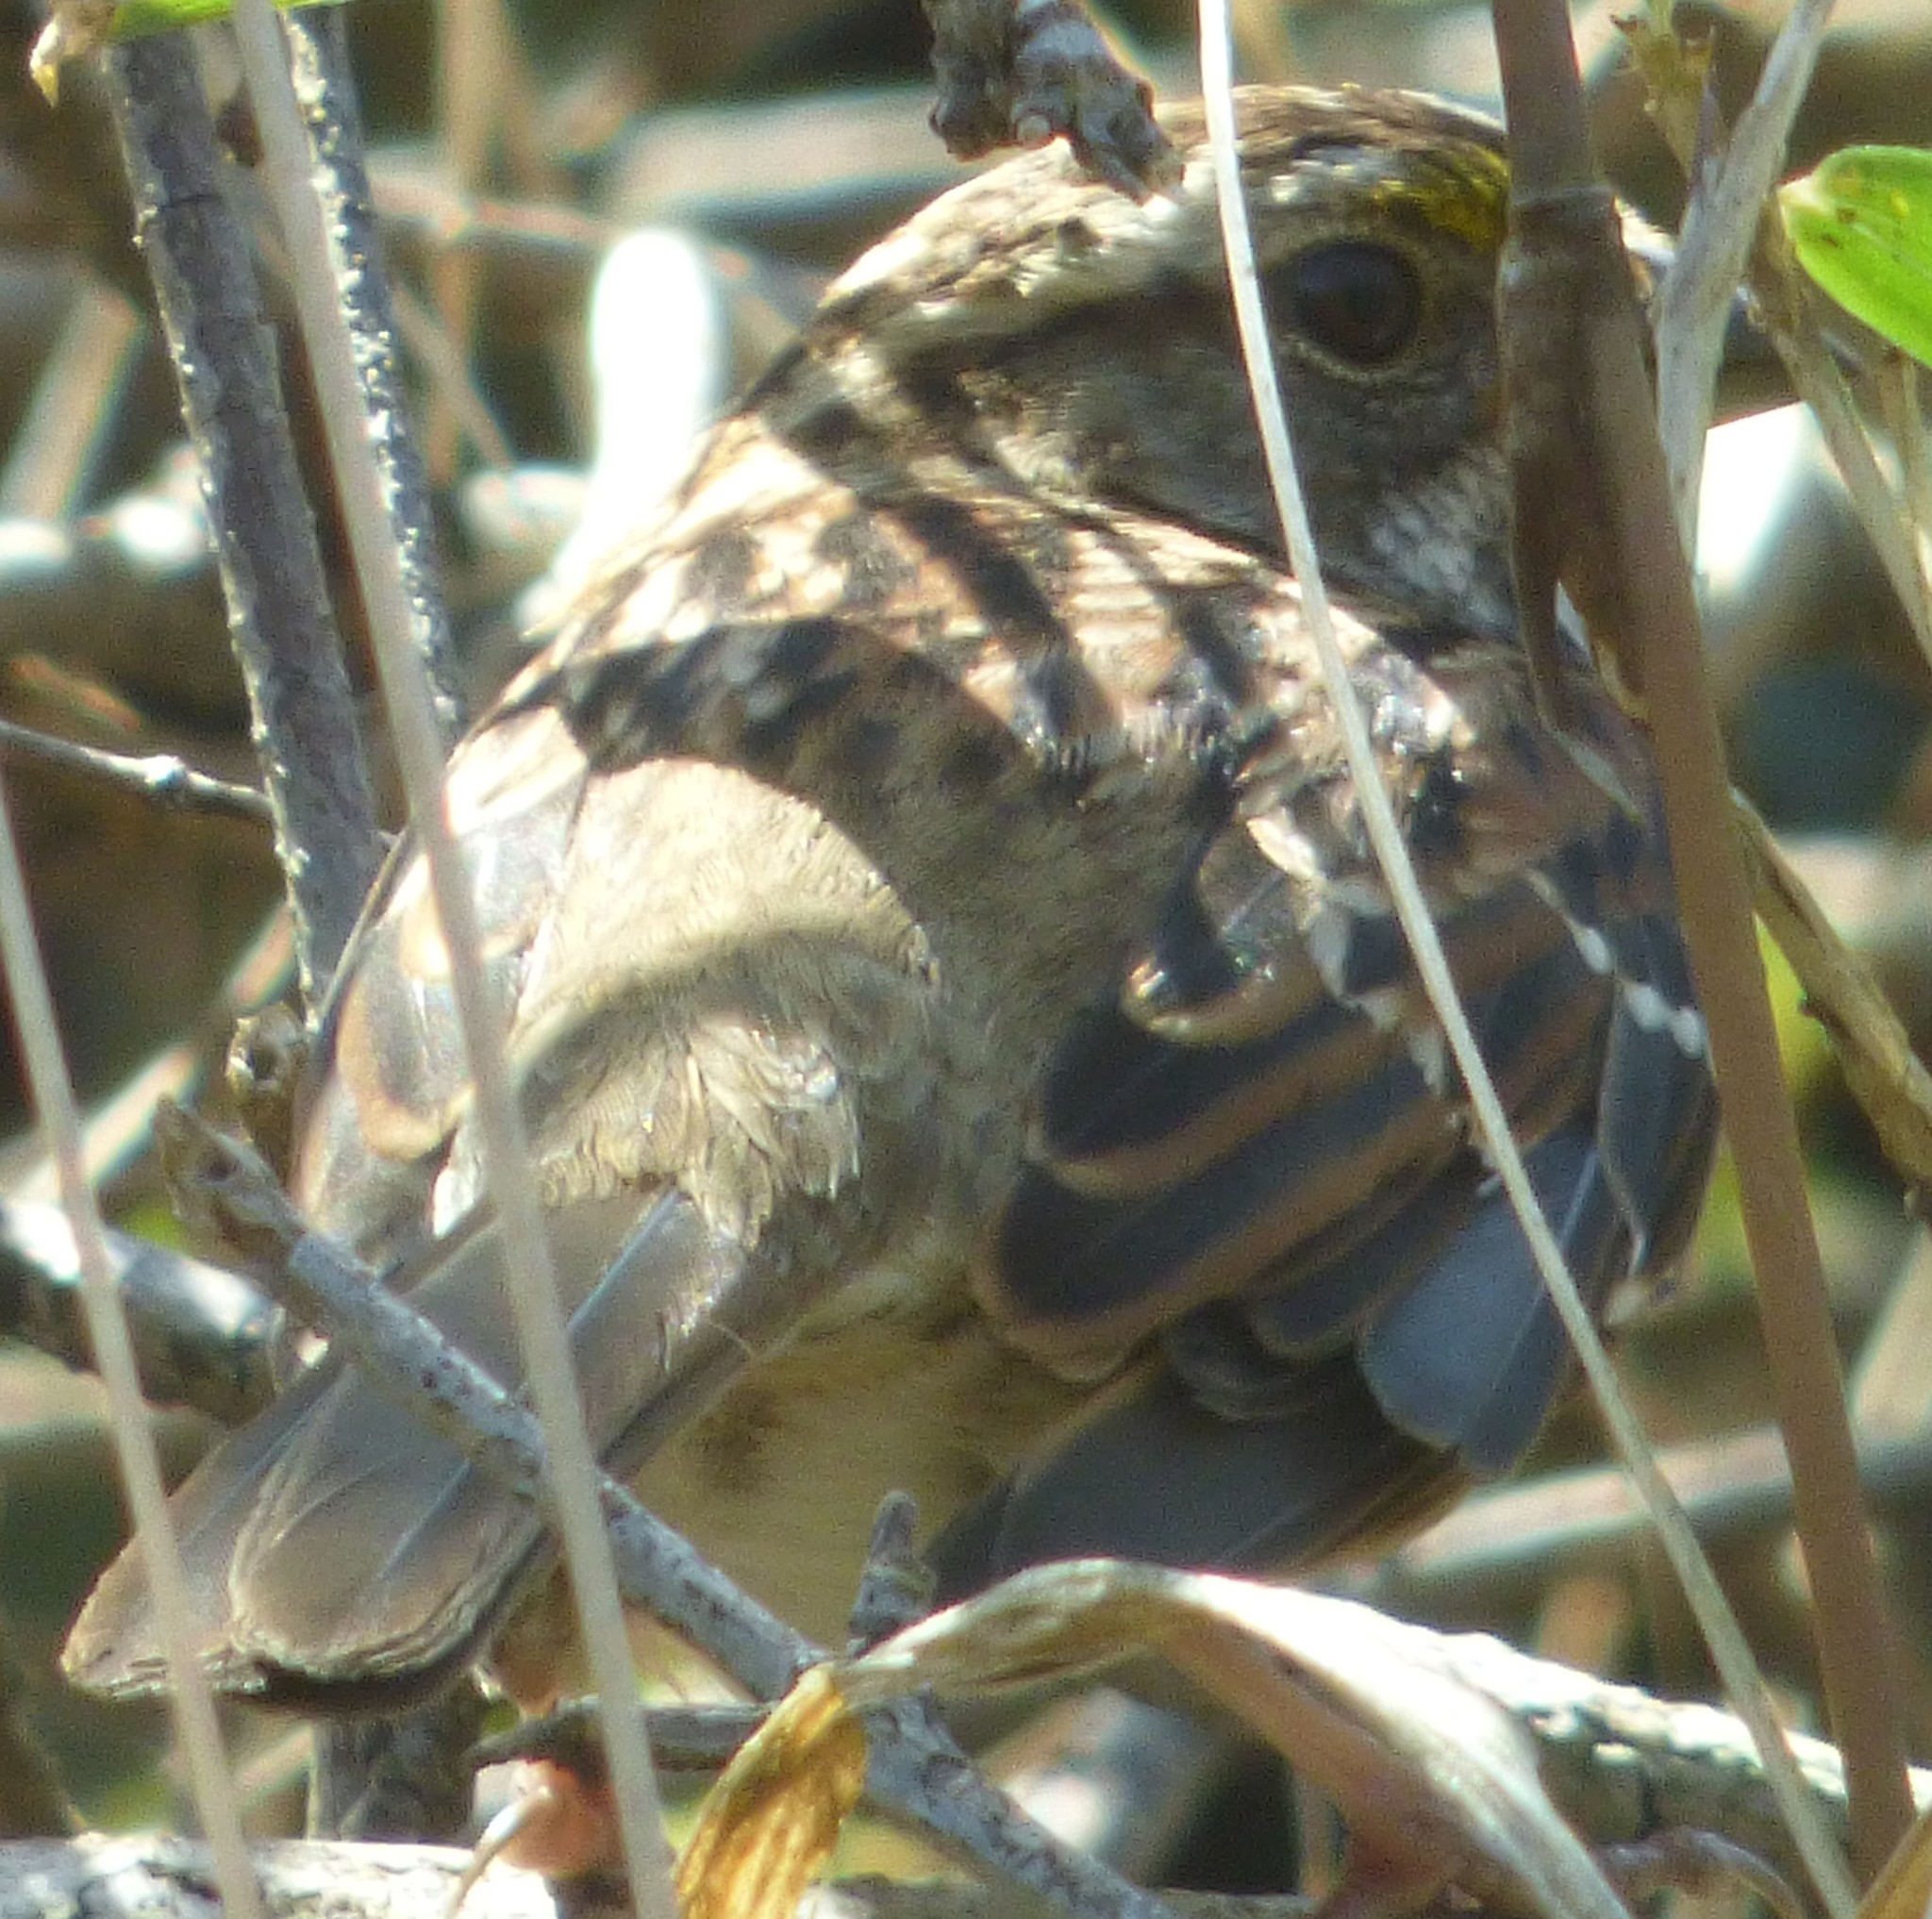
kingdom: Animalia
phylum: Chordata
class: Aves
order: Passeriformes
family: Passerellidae
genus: Zonotrichia
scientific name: Zonotrichia albicollis
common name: White-throated sparrow
